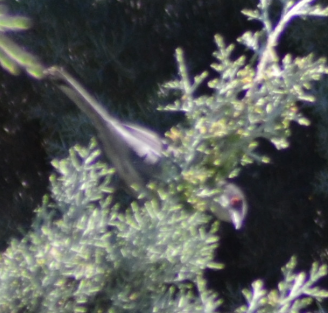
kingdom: Animalia
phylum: Chordata
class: Aves
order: Passeriformes
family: Sylviidae
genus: Curruca
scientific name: Curruca melanocephala
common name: Sardinian warbler
